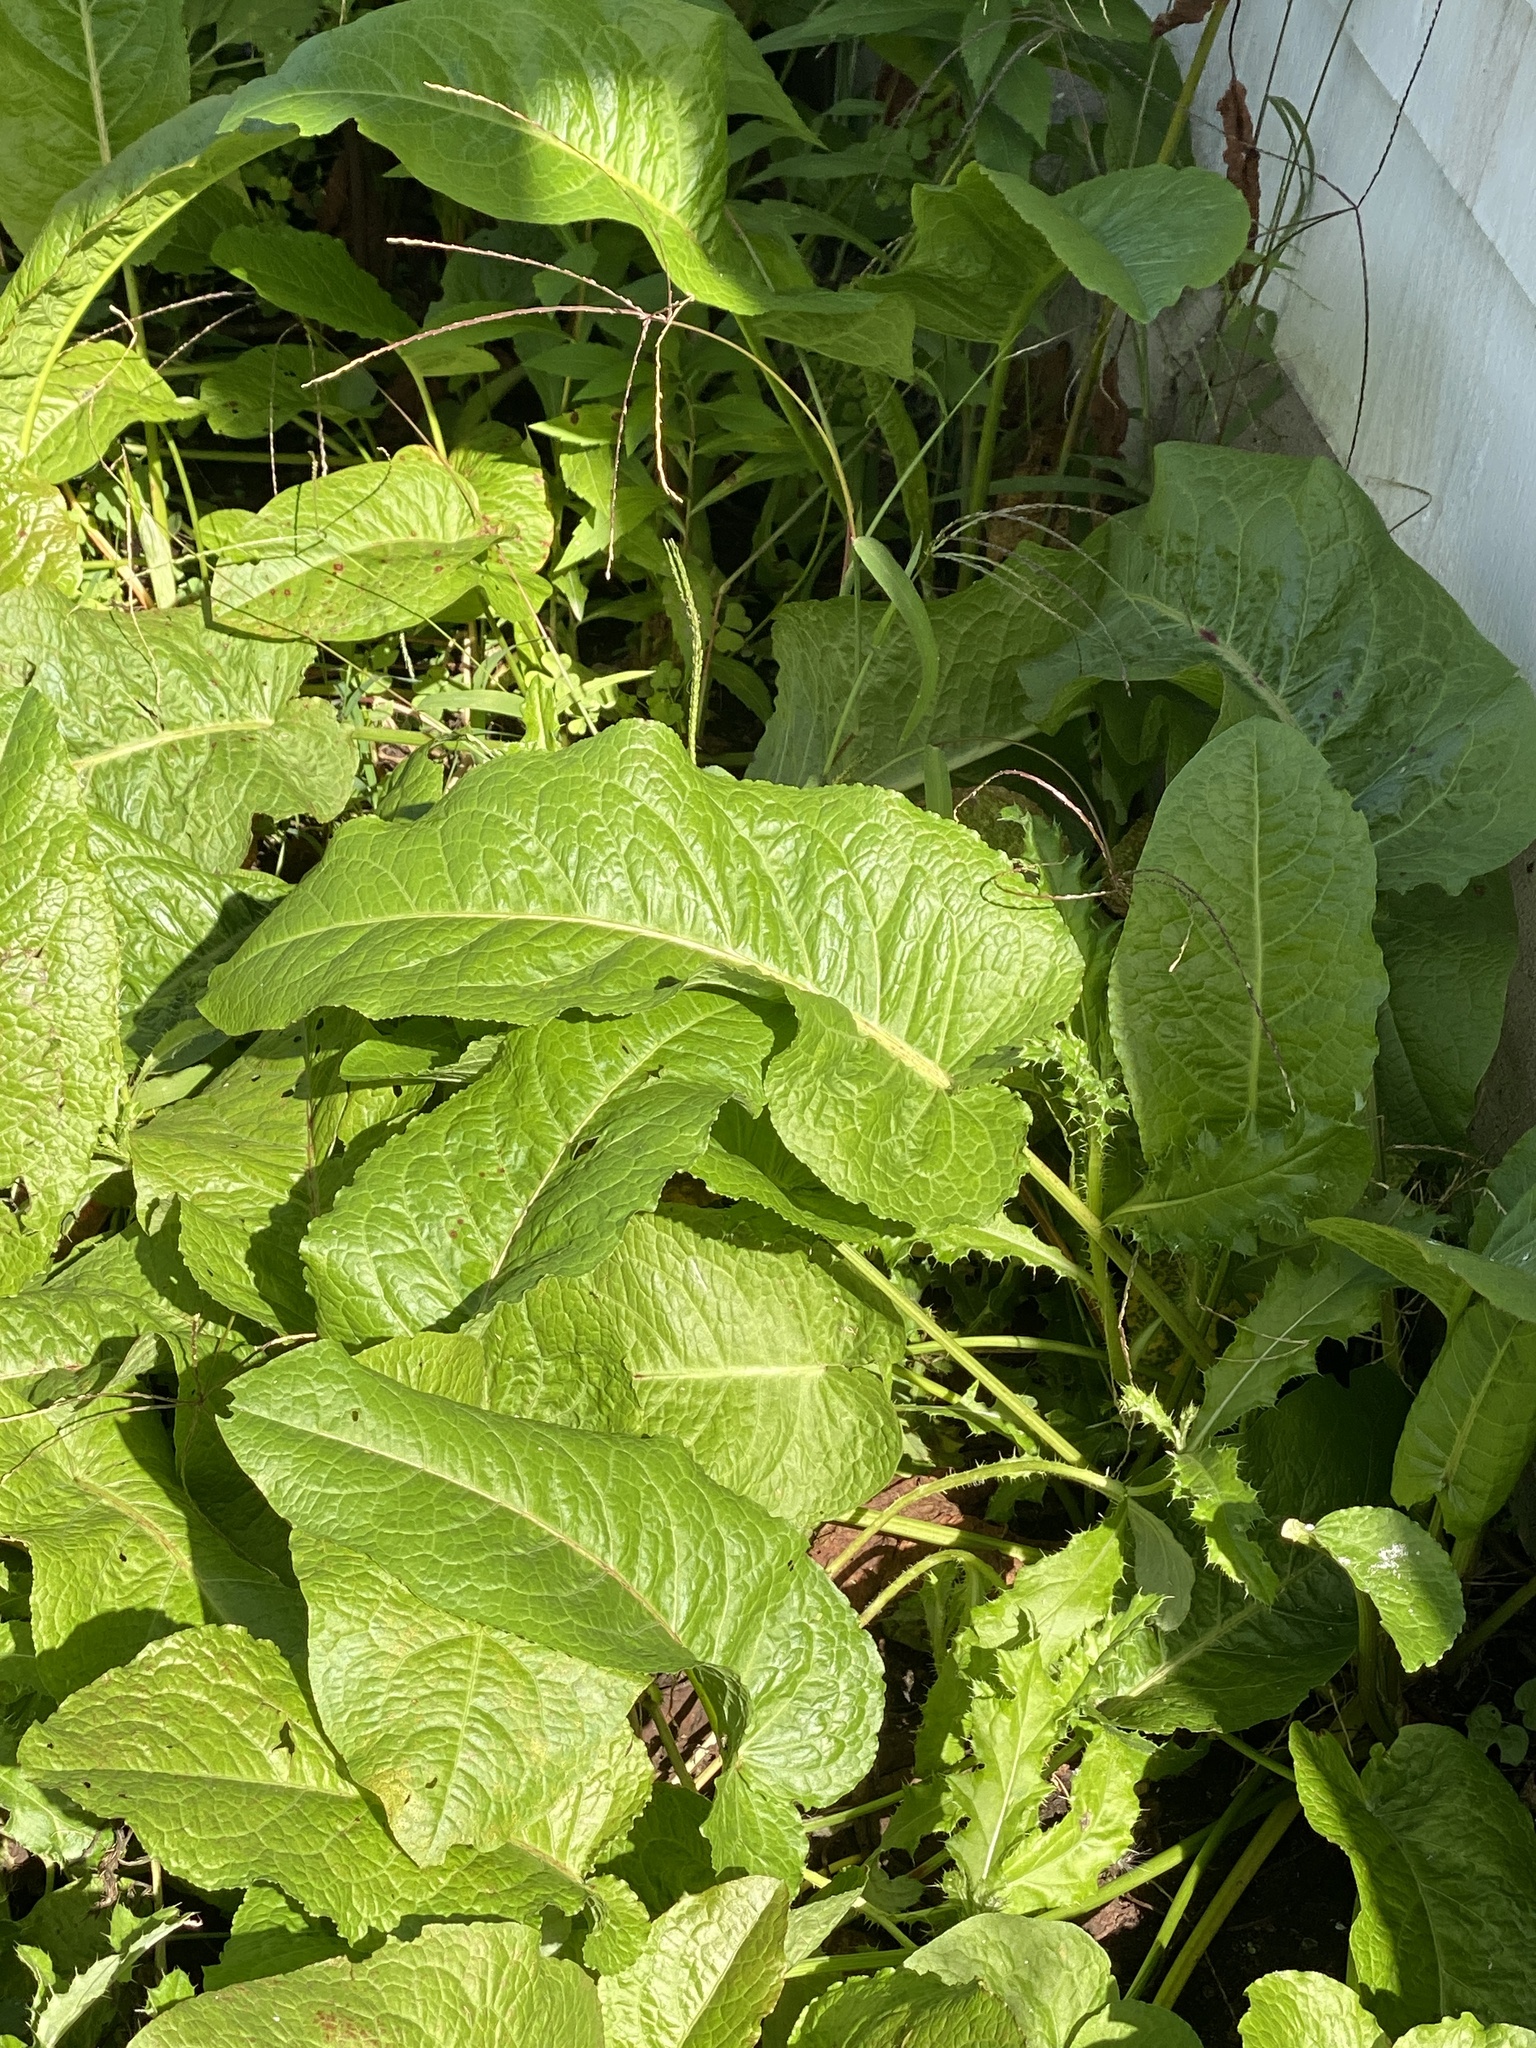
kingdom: Plantae
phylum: Tracheophyta
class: Magnoliopsida
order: Caryophyllales
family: Polygonaceae
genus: Rumex
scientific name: Rumex obtusifolius
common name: Bitter dock
